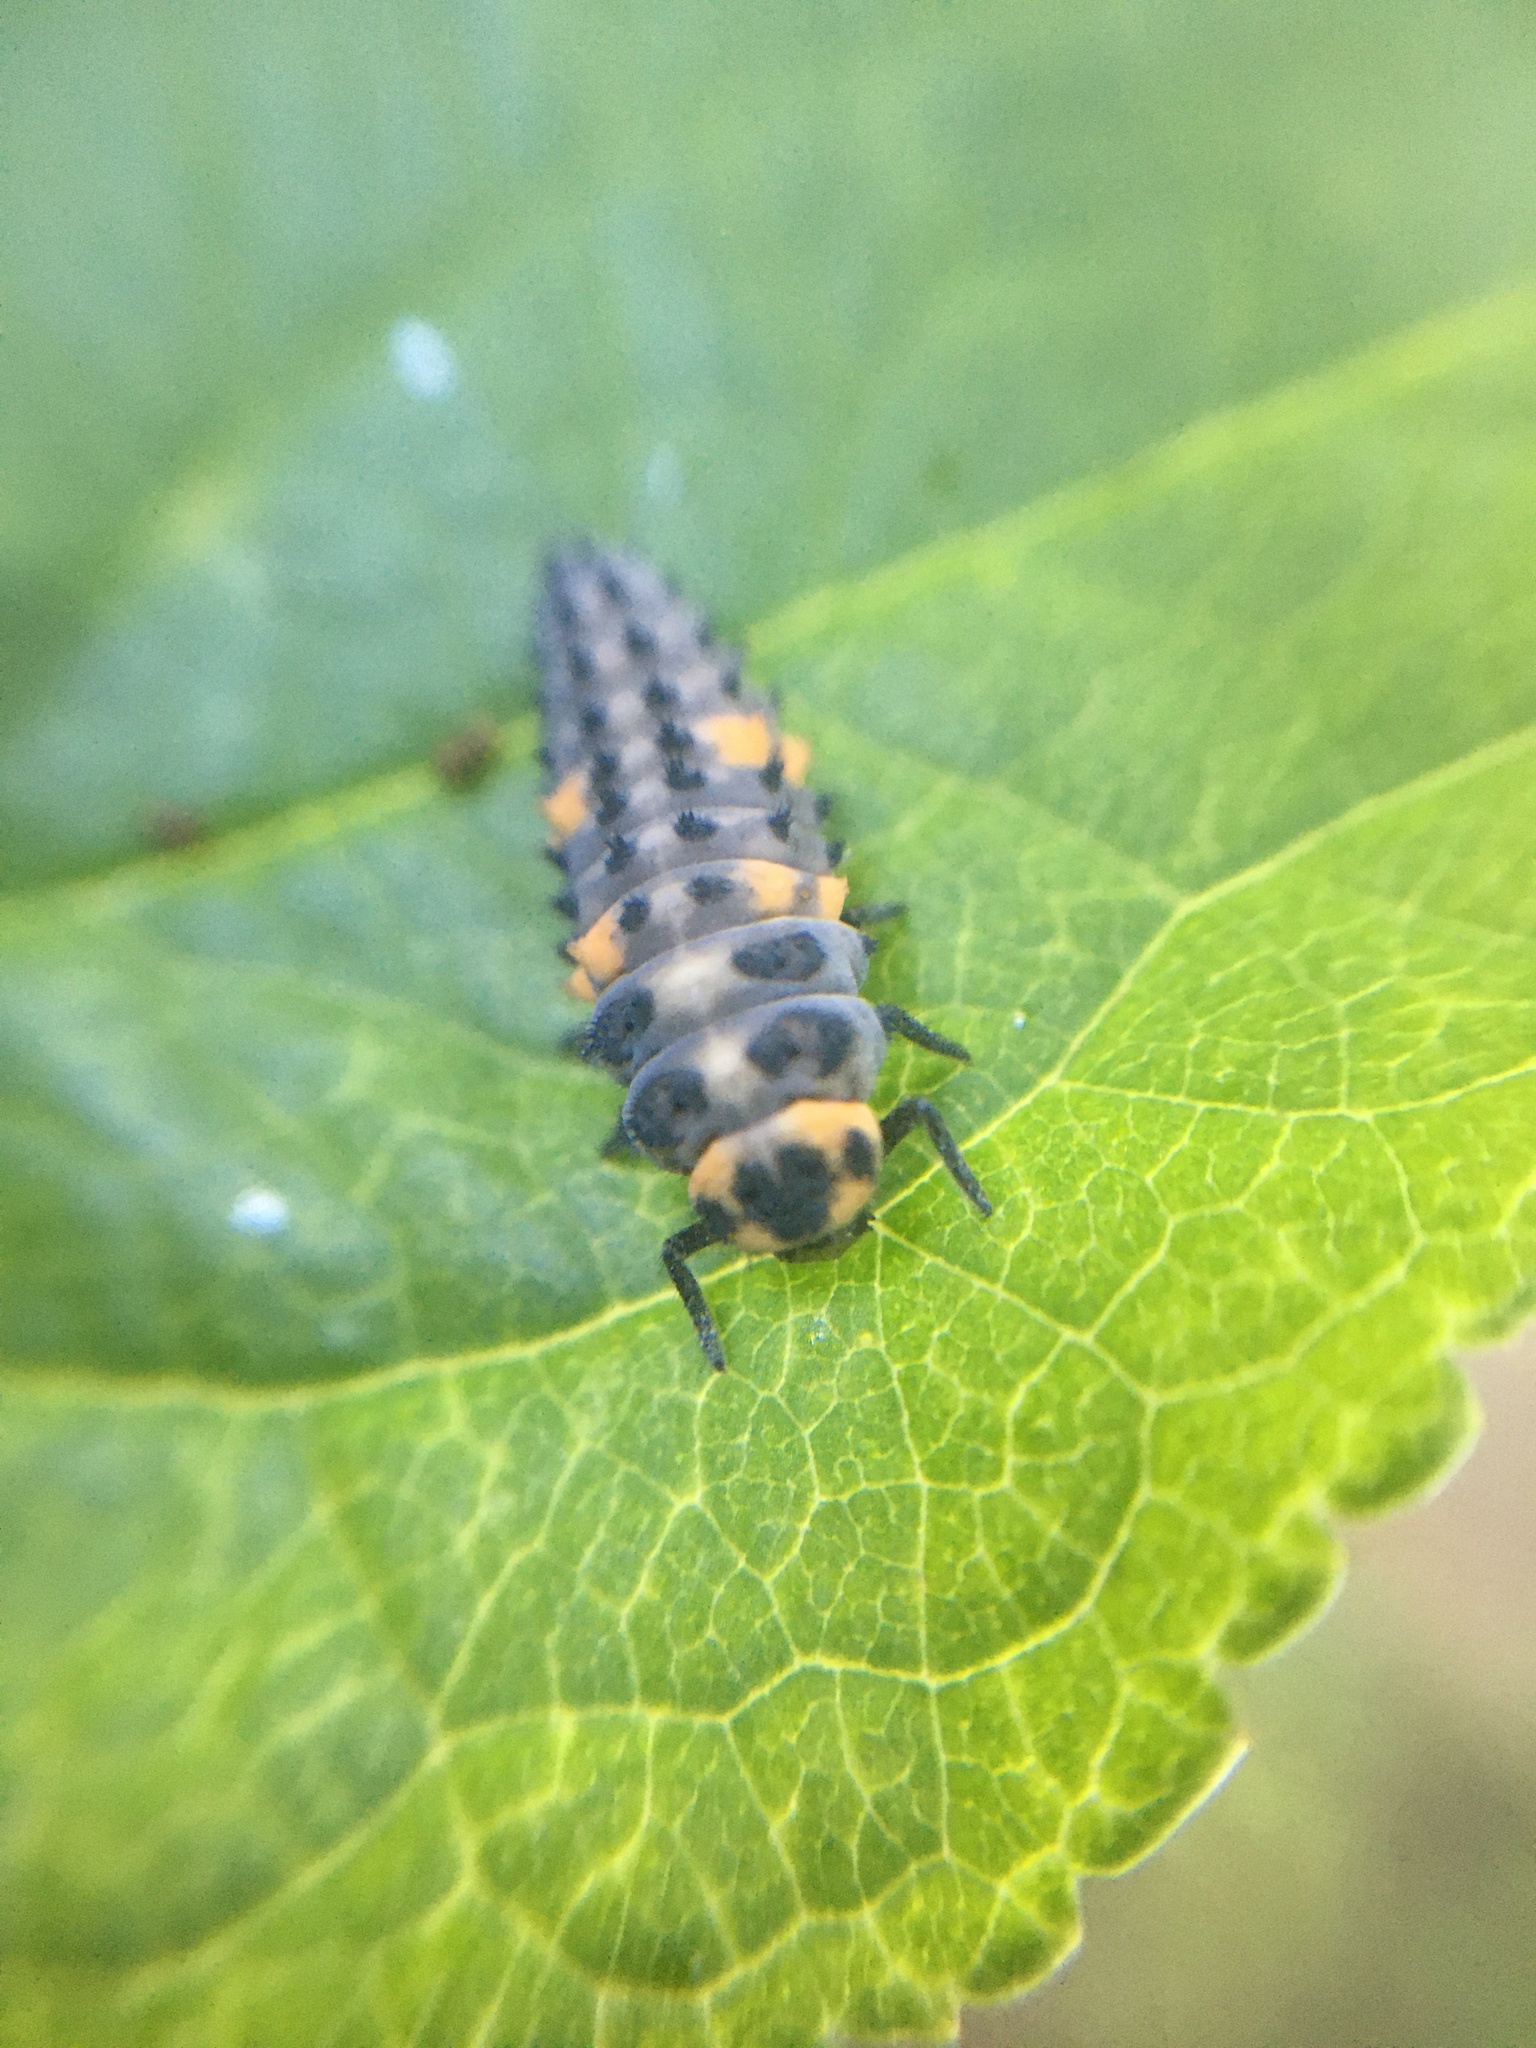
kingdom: Animalia
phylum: Arthropoda
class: Insecta
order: Coleoptera
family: Coccinellidae
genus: Coccinella
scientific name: Coccinella septempunctata
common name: Sevenspotted lady beetle
